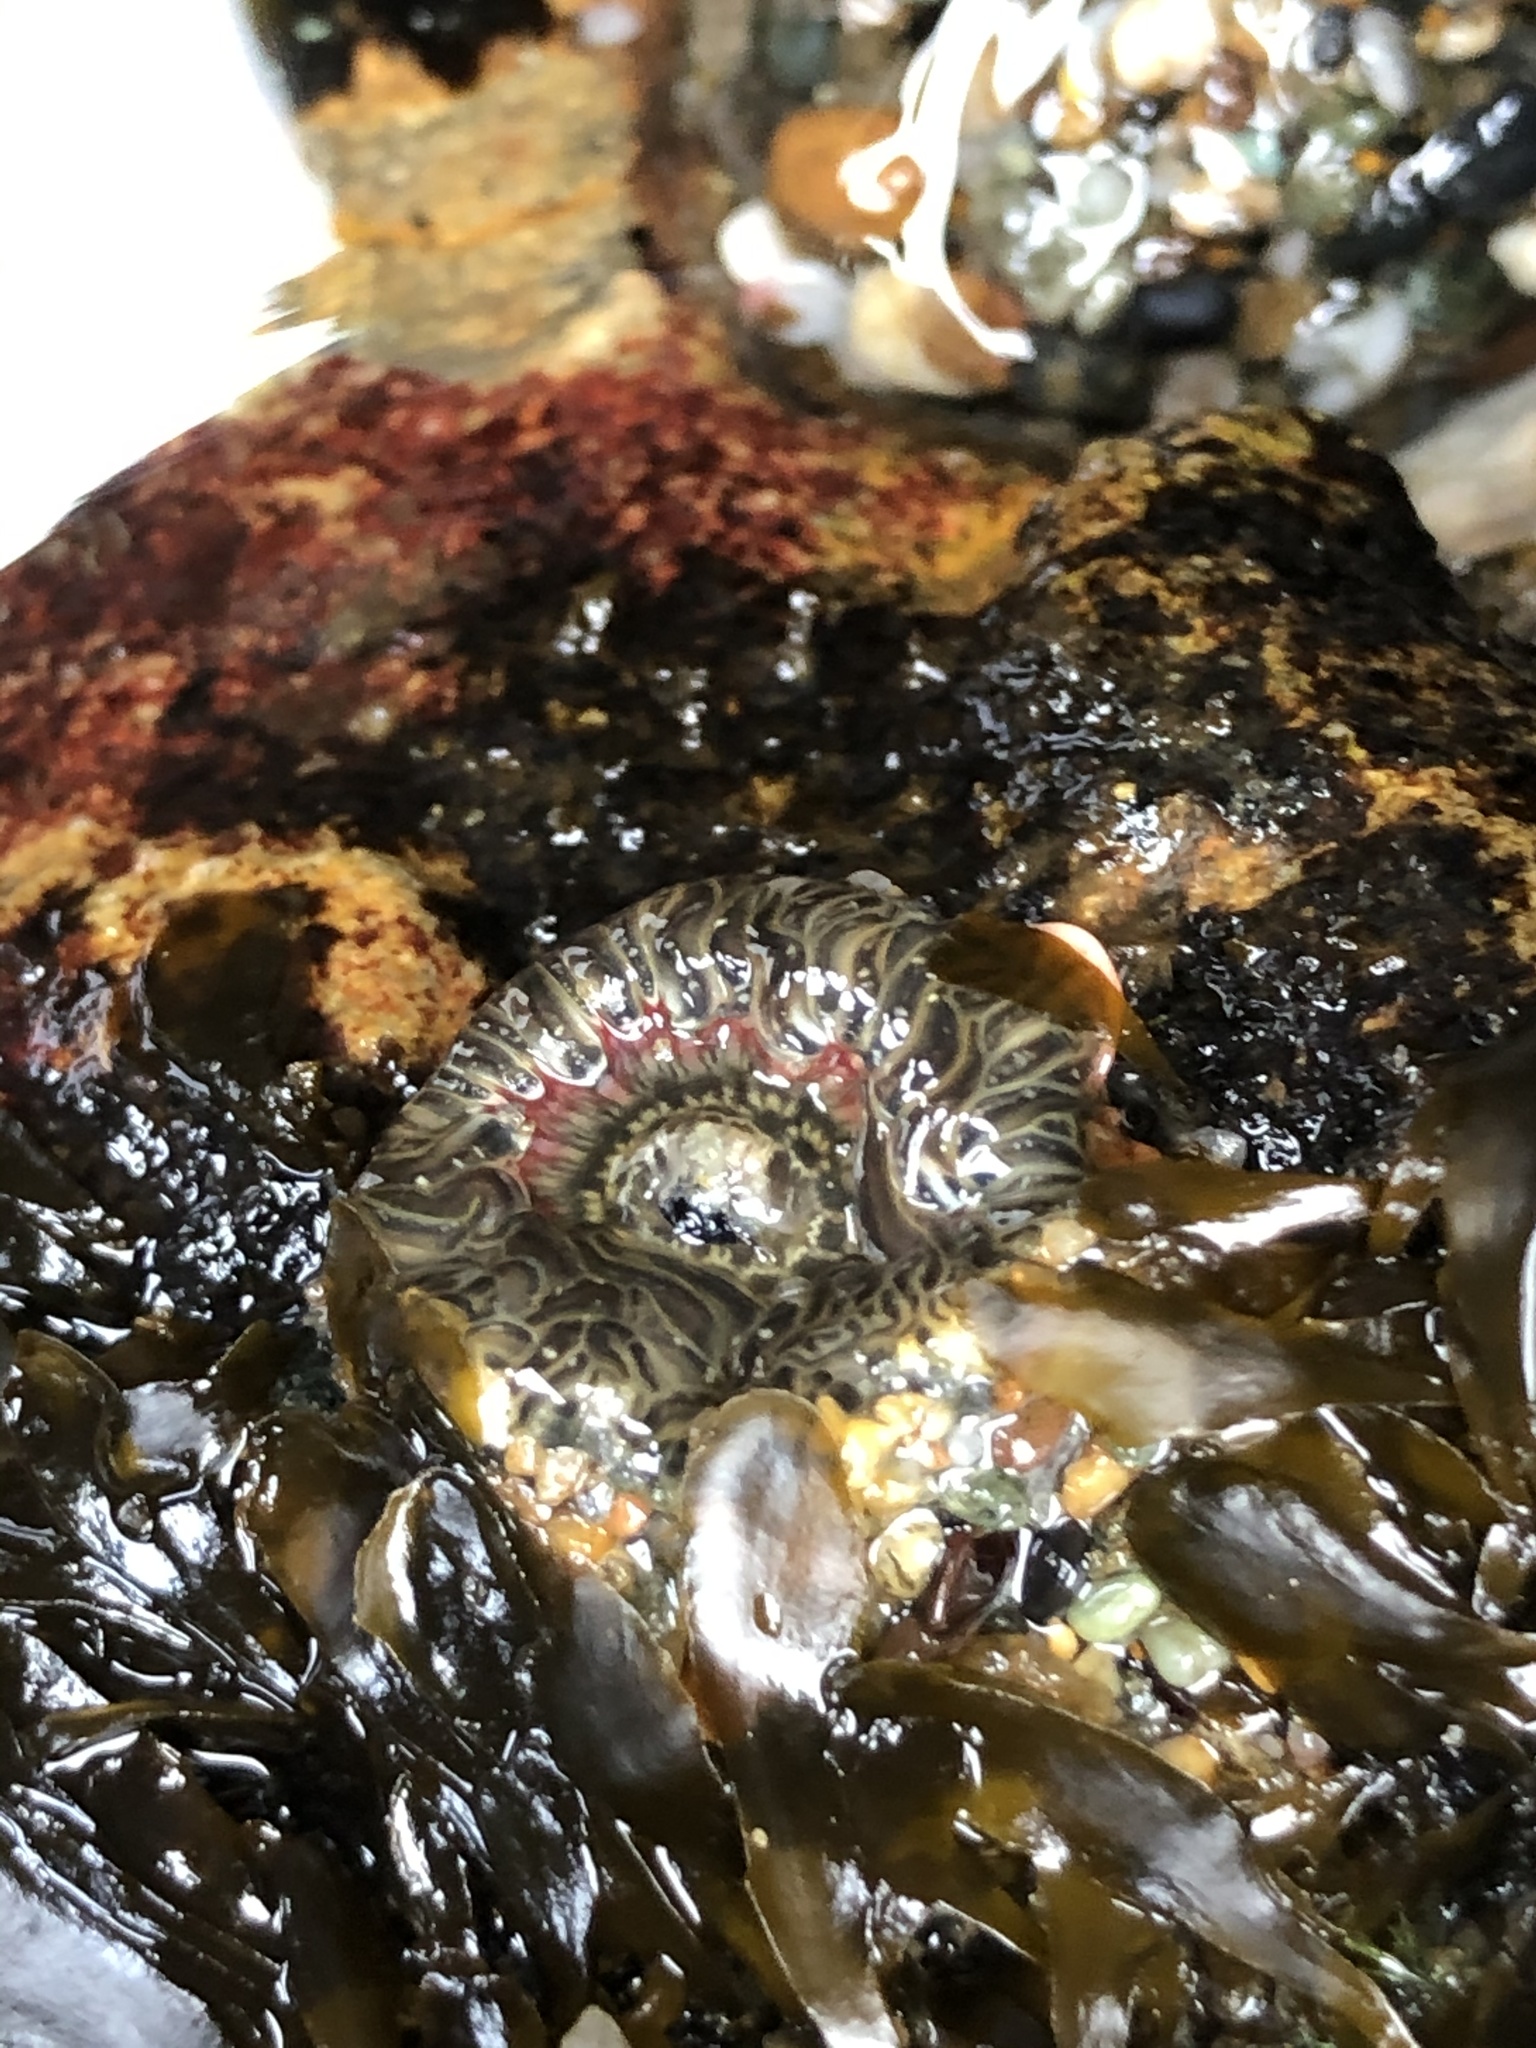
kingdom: Animalia
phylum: Cnidaria
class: Anthozoa
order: Actiniaria
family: Actiniidae
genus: Anthopleura
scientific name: Anthopleura artemisia
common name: Buried sea anemone
